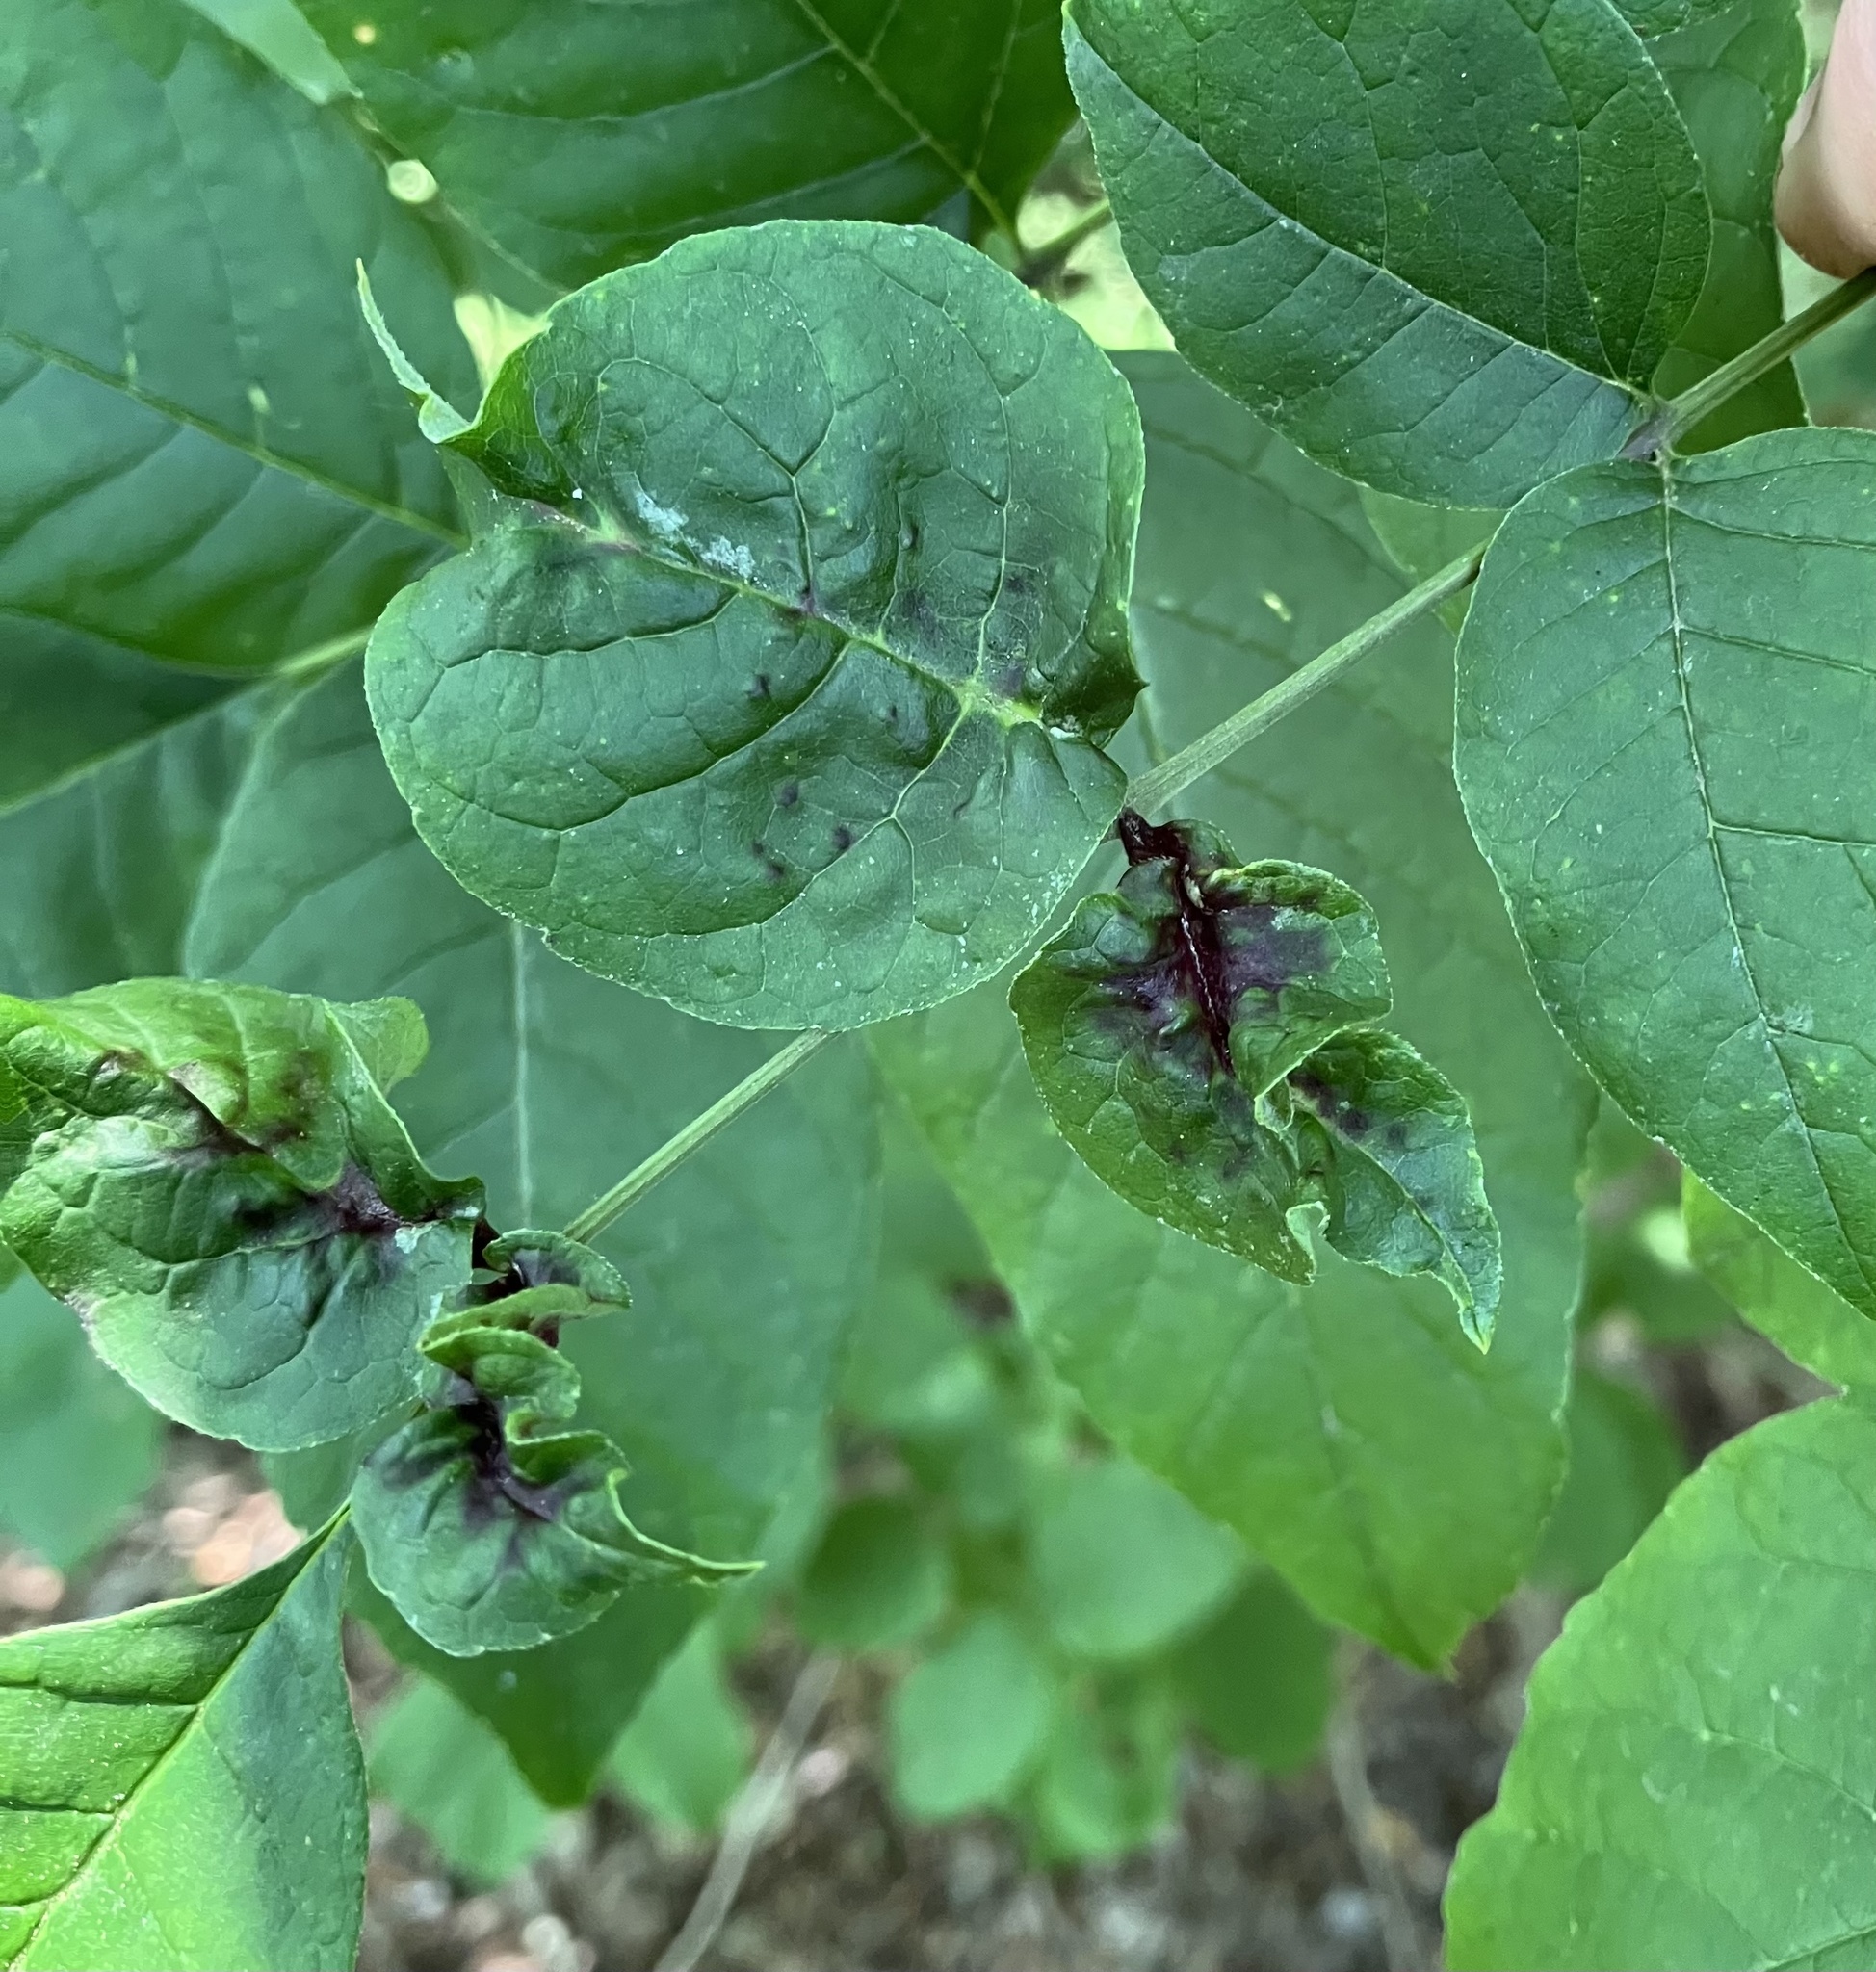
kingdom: Animalia
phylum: Arthropoda
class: Insecta
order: Diptera
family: Cecidomyiidae
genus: Dasineura
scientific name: Dasineura tumidosae
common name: Ash petiole gall midge
